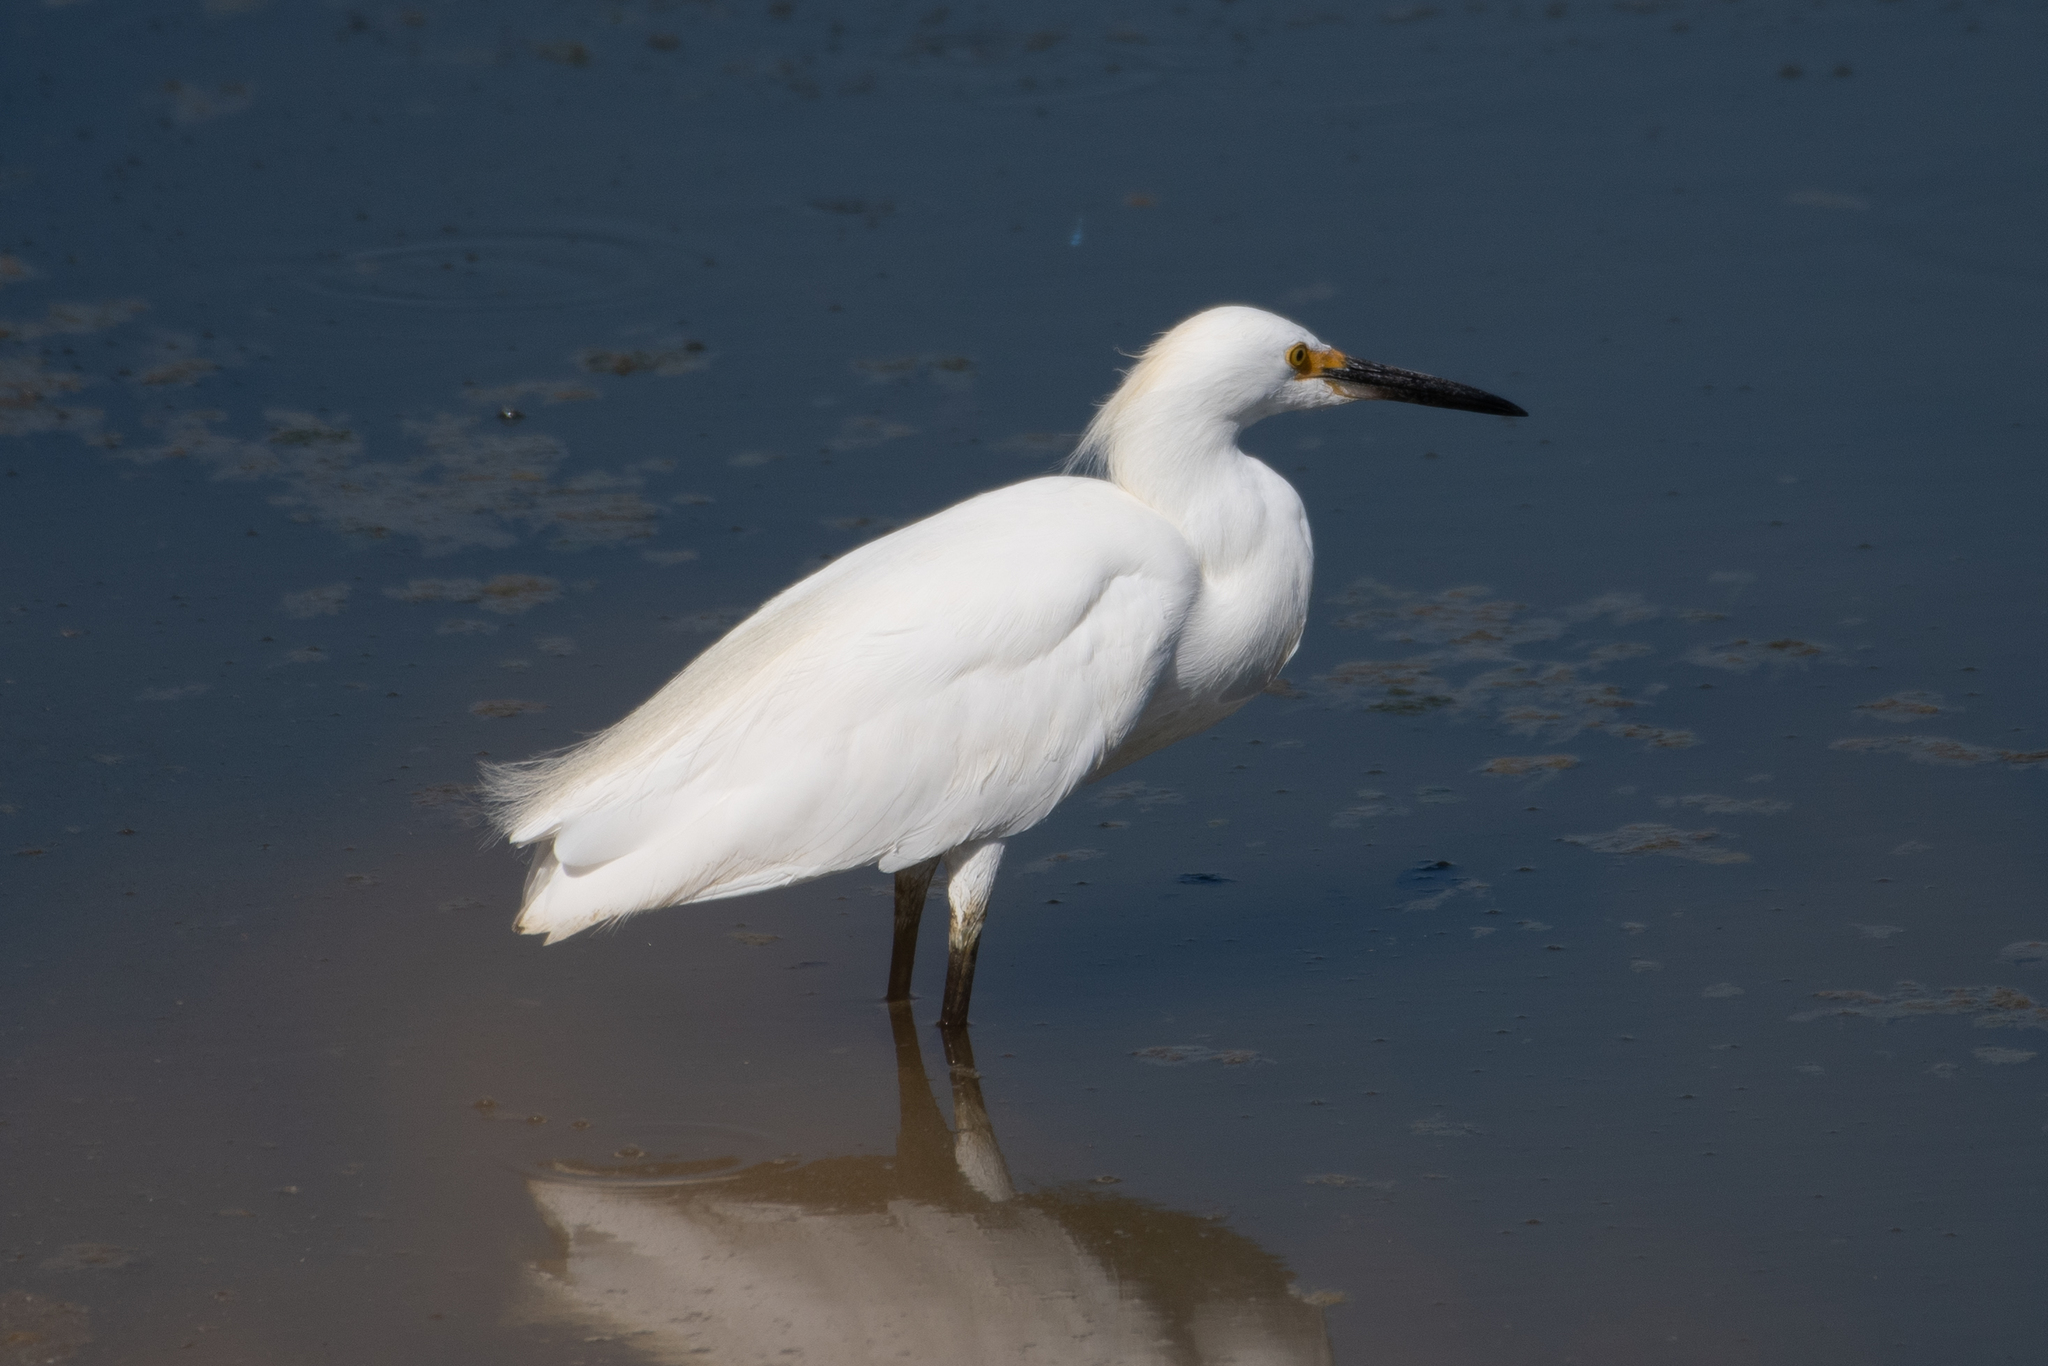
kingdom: Animalia
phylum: Chordata
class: Aves
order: Pelecaniformes
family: Ardeidae
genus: Egretta
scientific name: Egretta thula
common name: Snowy egret
